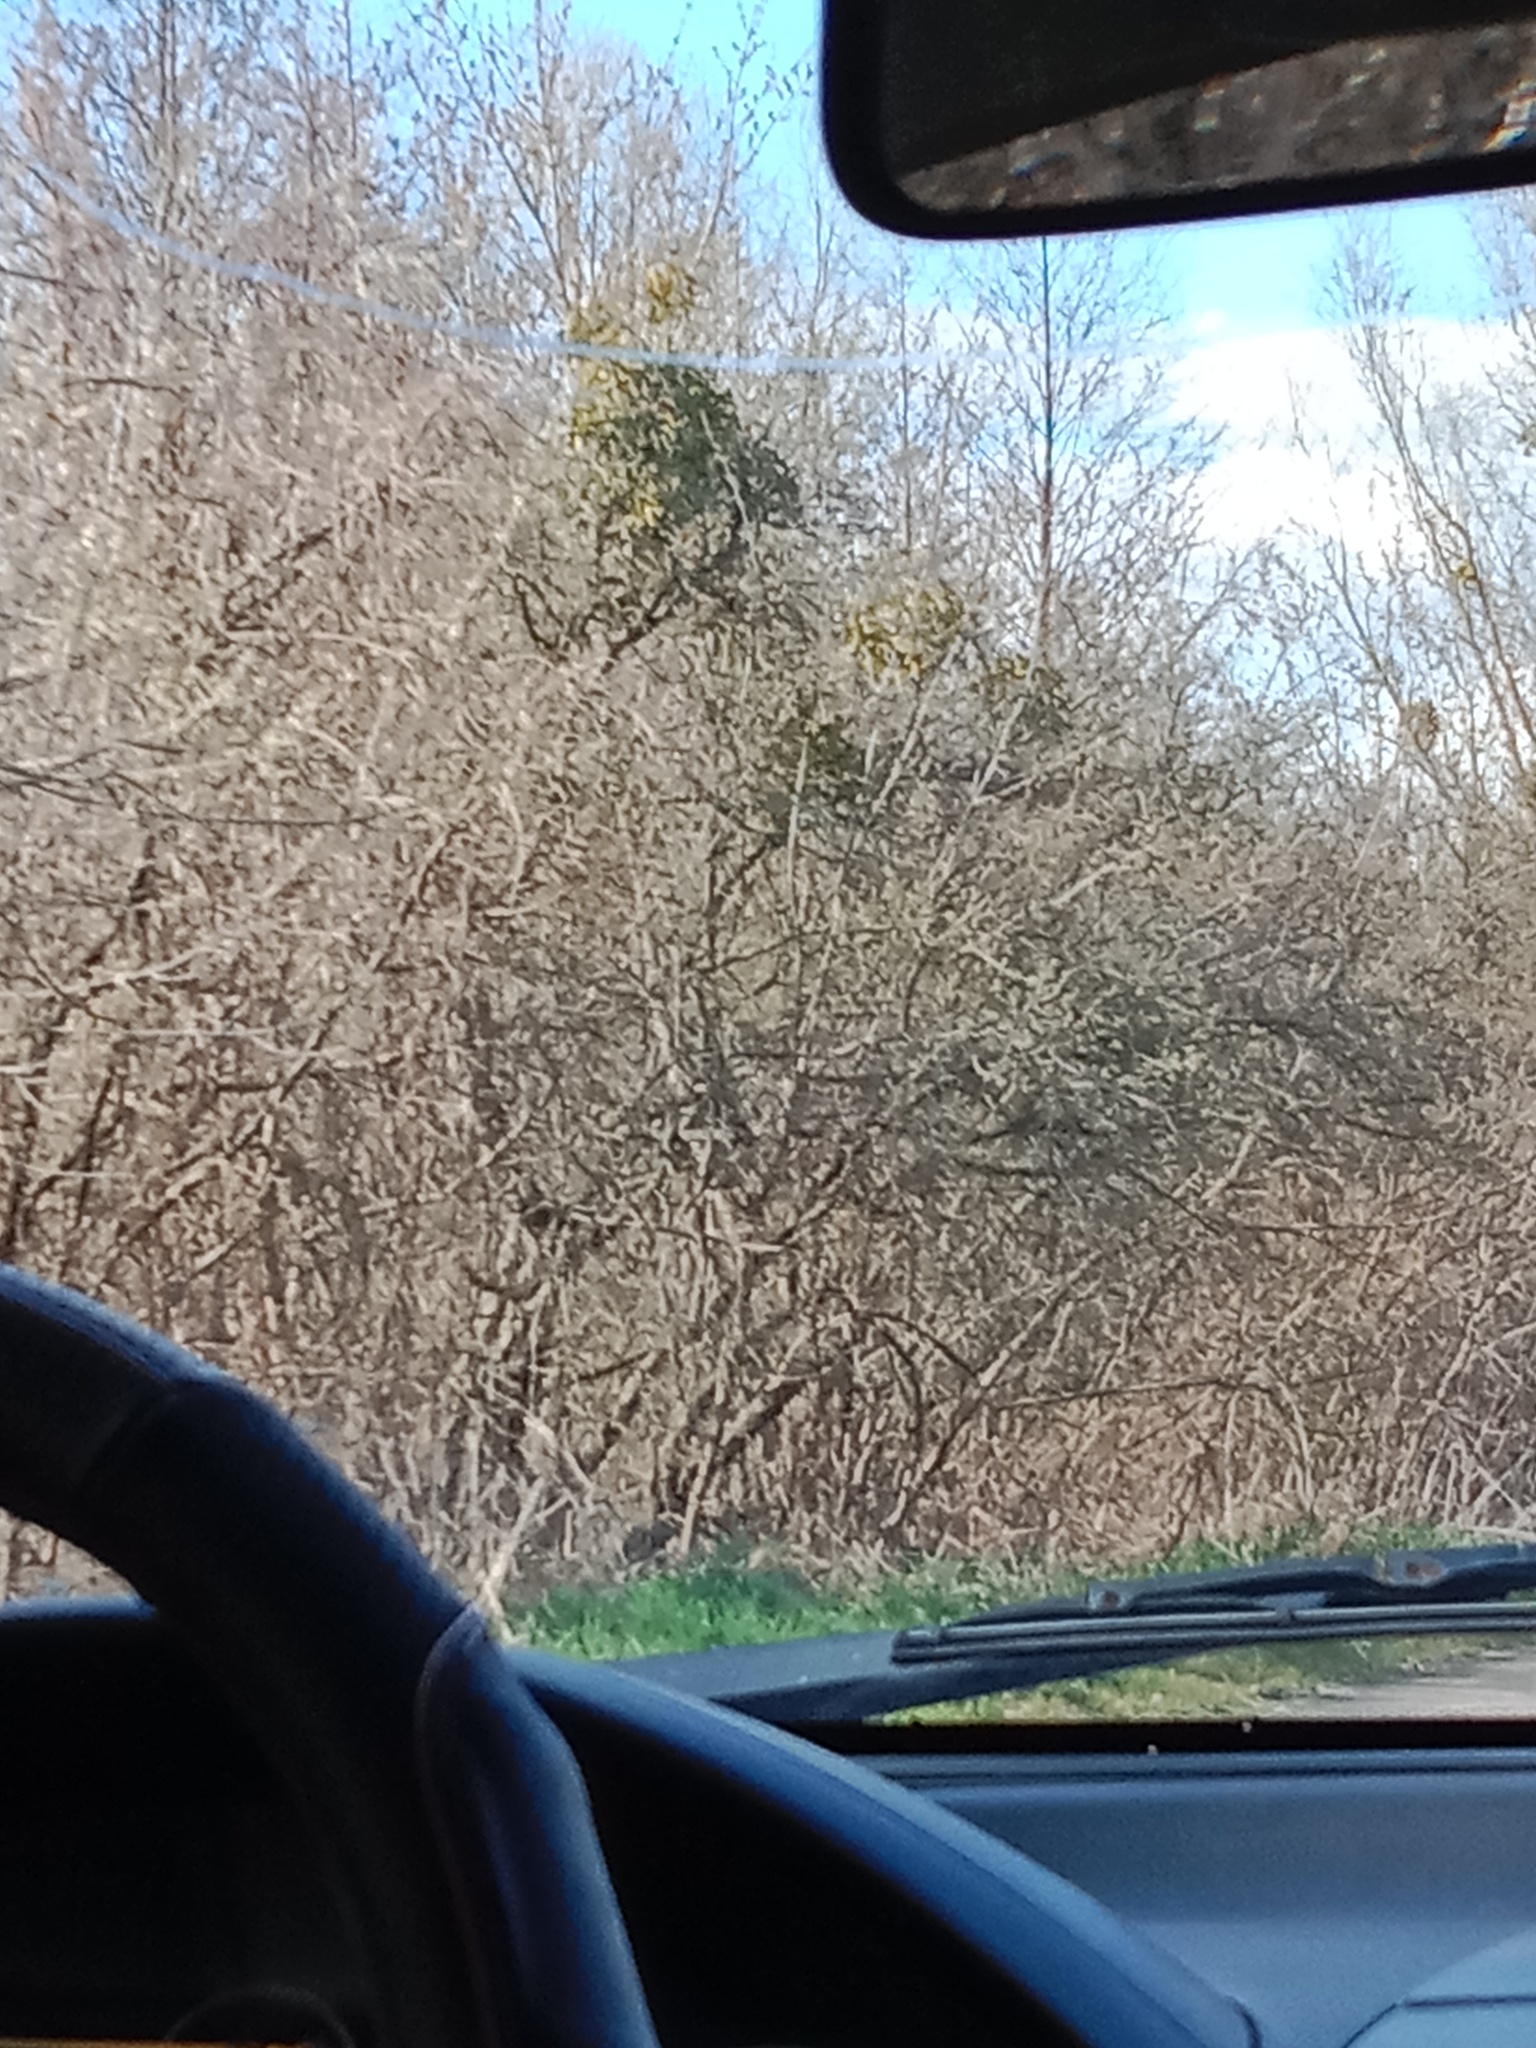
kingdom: Plantae
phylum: Tracheophyta
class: Magnoliopsida
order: Santalales
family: Viscaceae
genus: Viscum
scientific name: Viscum album
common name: Mistletoe
